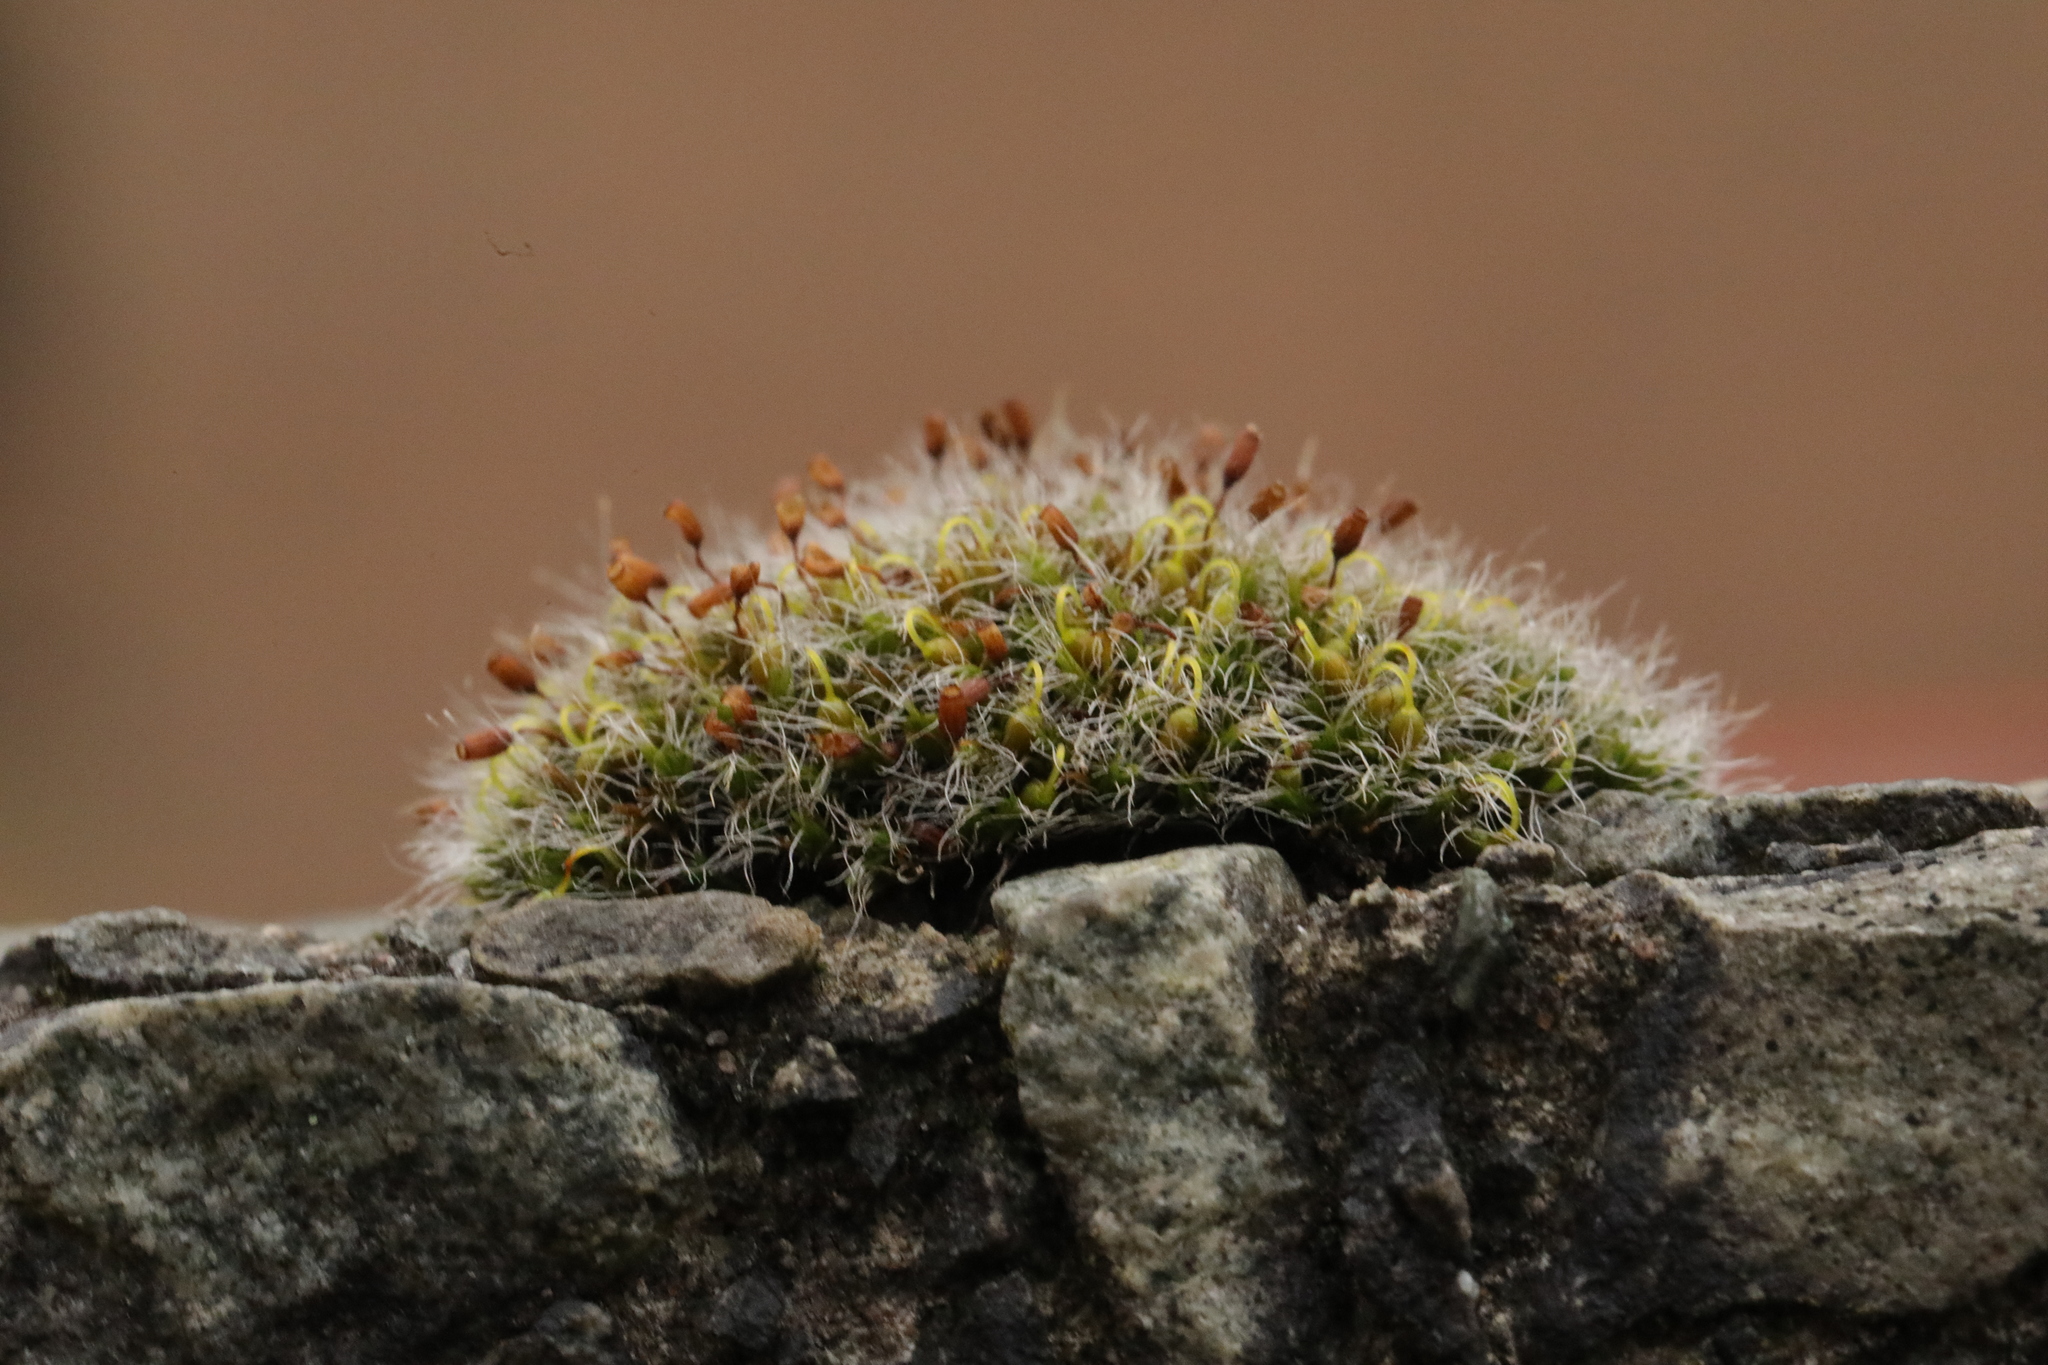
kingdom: Plantae
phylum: Bryophyta
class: Bryopsida
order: Grimmiales
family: Grimmiaceae
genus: Grimmia
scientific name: Grimmia pulvinata
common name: Grey-cushioned grimmia
